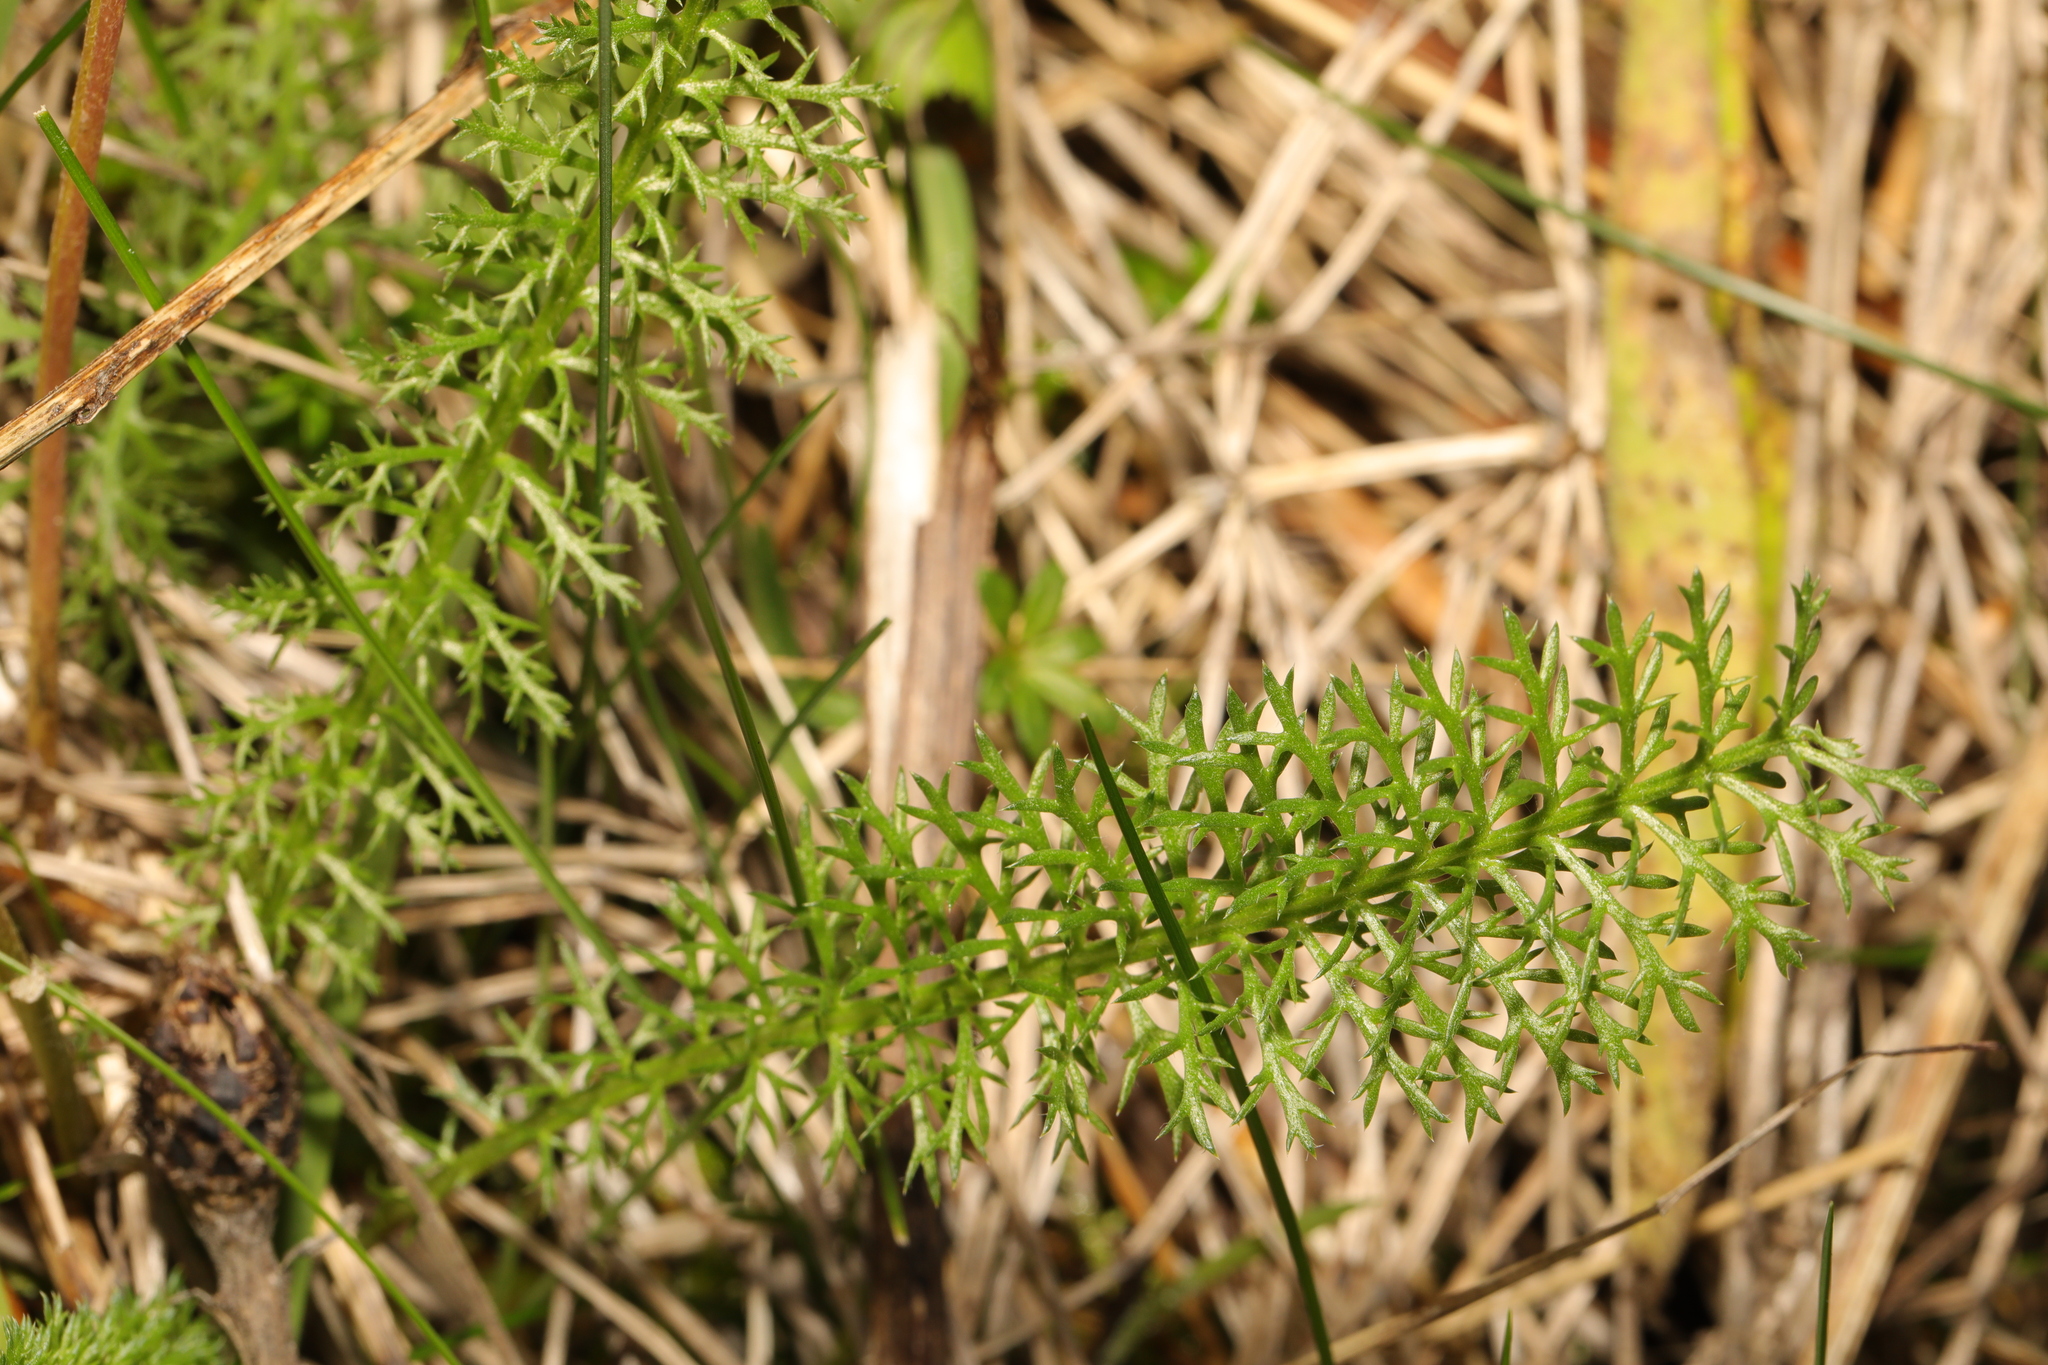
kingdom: Plantae
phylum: Tracheophyta
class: Magnoliopsida
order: Asterales
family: Asteraceae
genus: Achillea
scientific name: Achillea millefolium
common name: Yarrow
